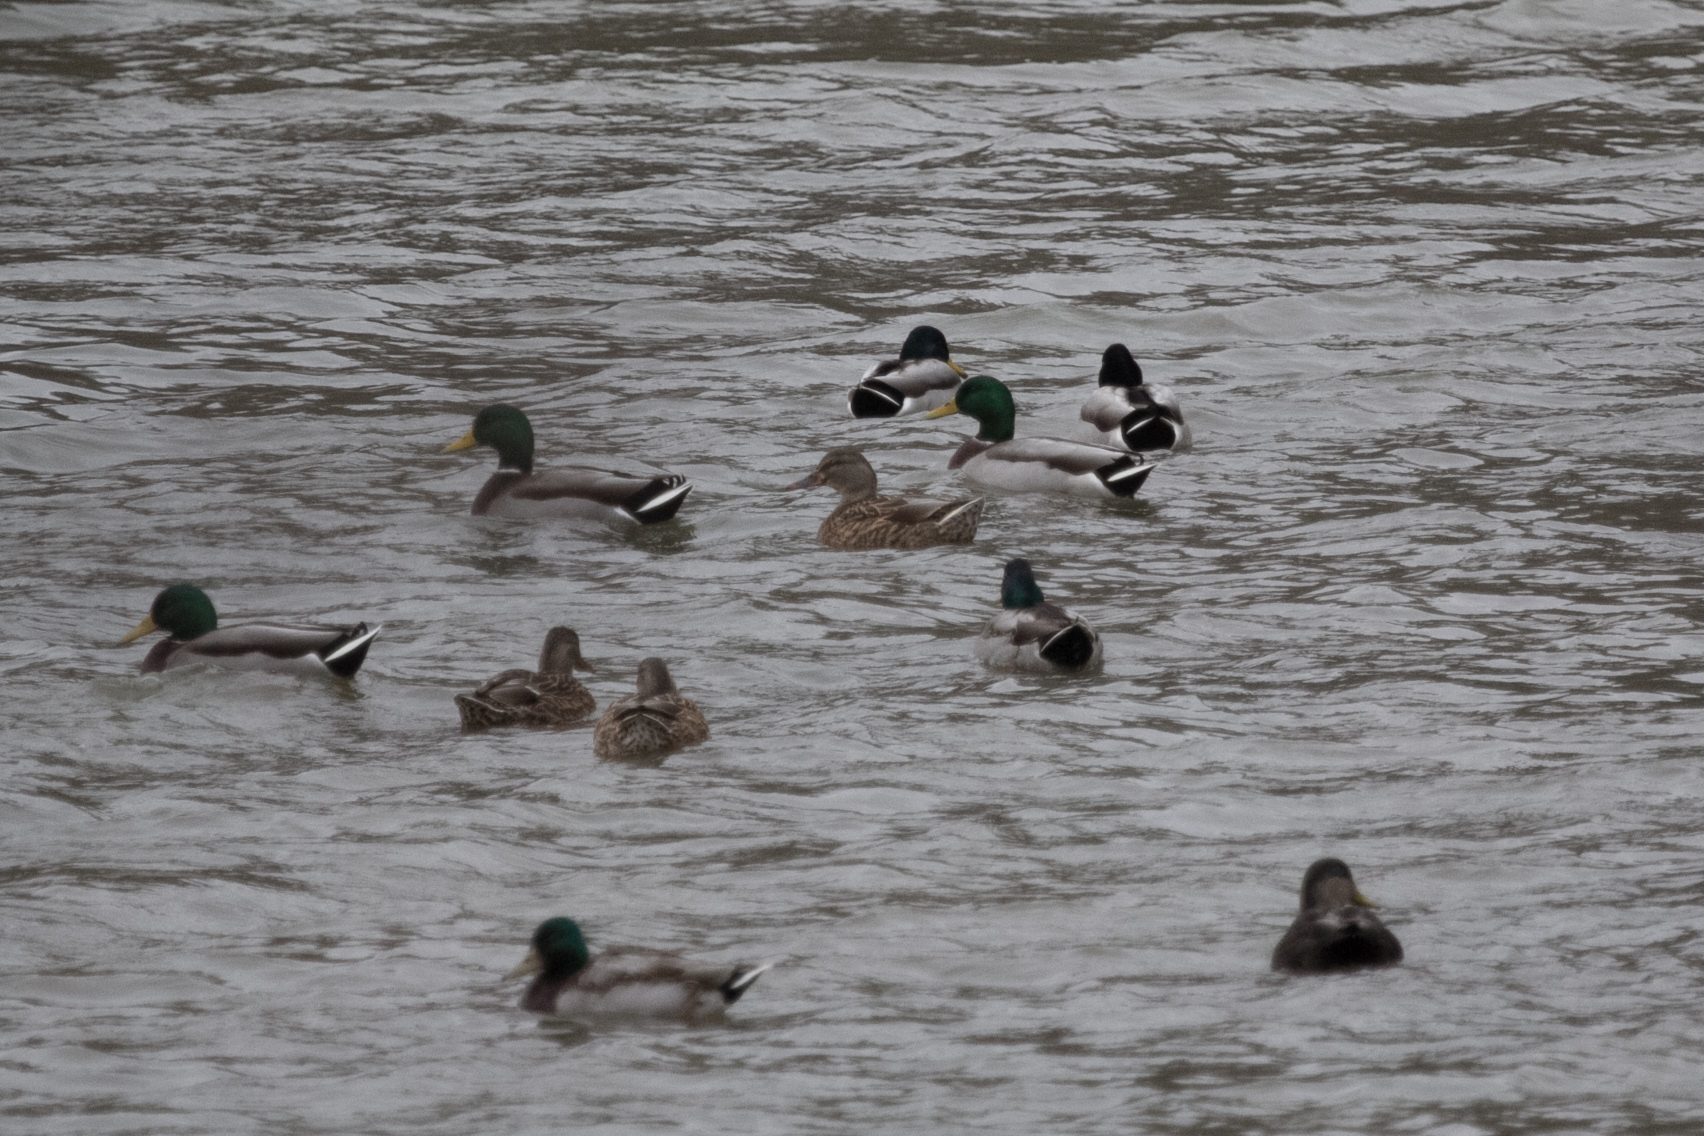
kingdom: Animalia
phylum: Chordata
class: Aves
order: Anseriformes
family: Anatidae
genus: Anas
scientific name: Anas platyrhynchos
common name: Mallard
